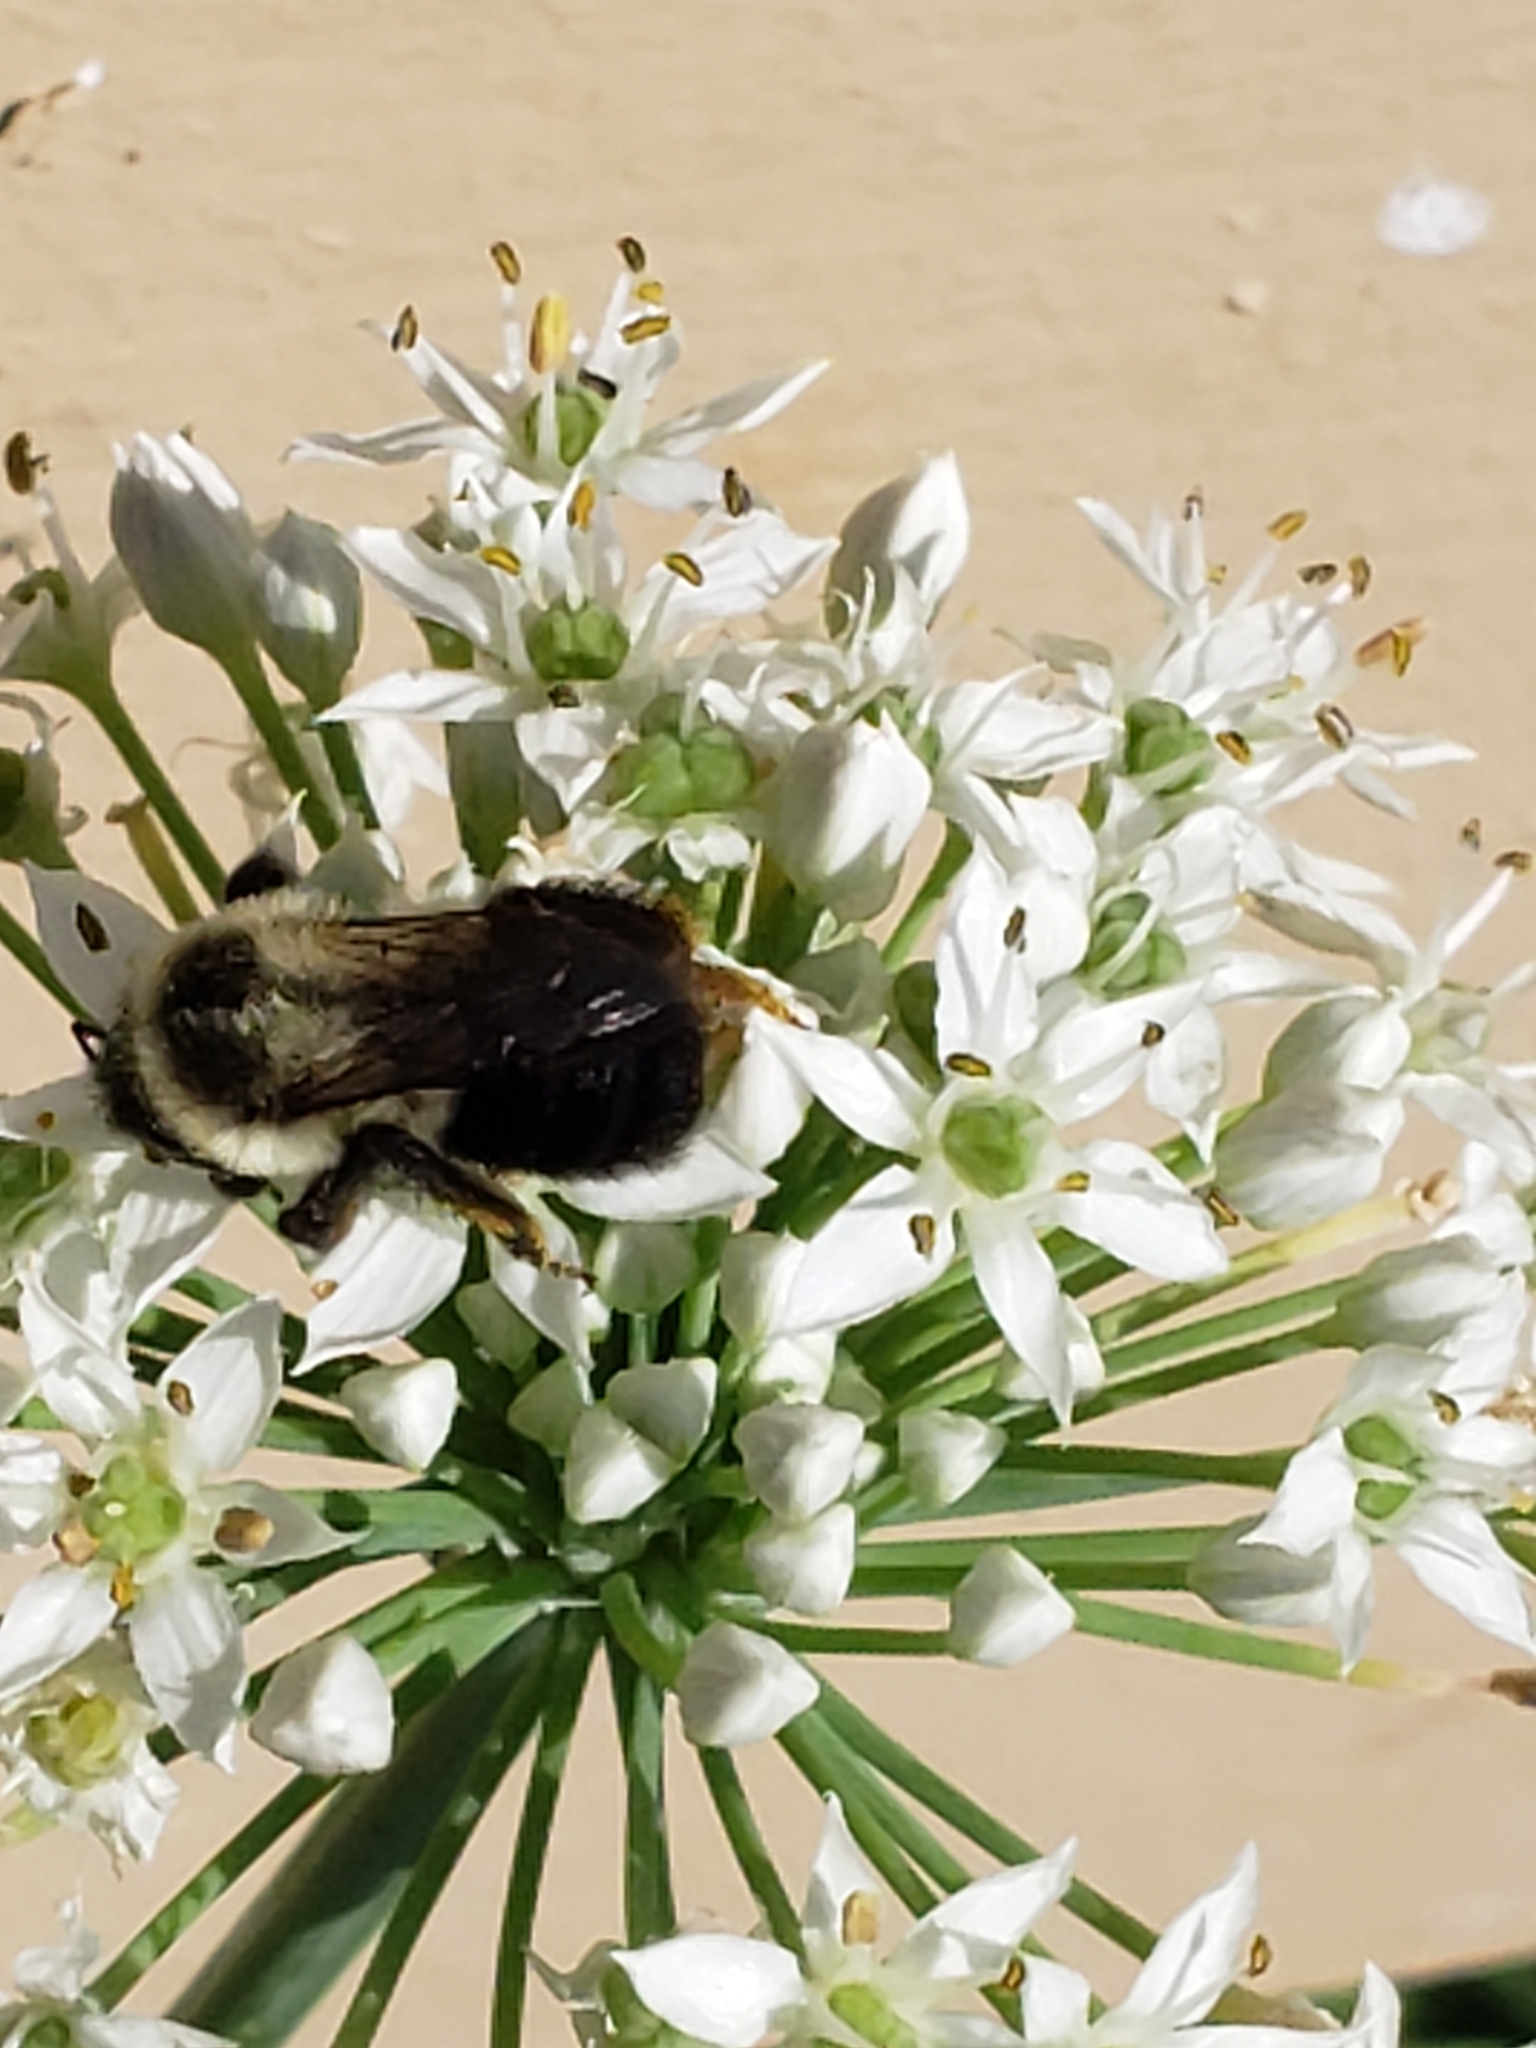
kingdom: Animalia
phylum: Arthropoda
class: Insecta
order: Hymenoptera
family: Apidae
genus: Bombus
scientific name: Bombus impatiens
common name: Common eastern bumble bee
